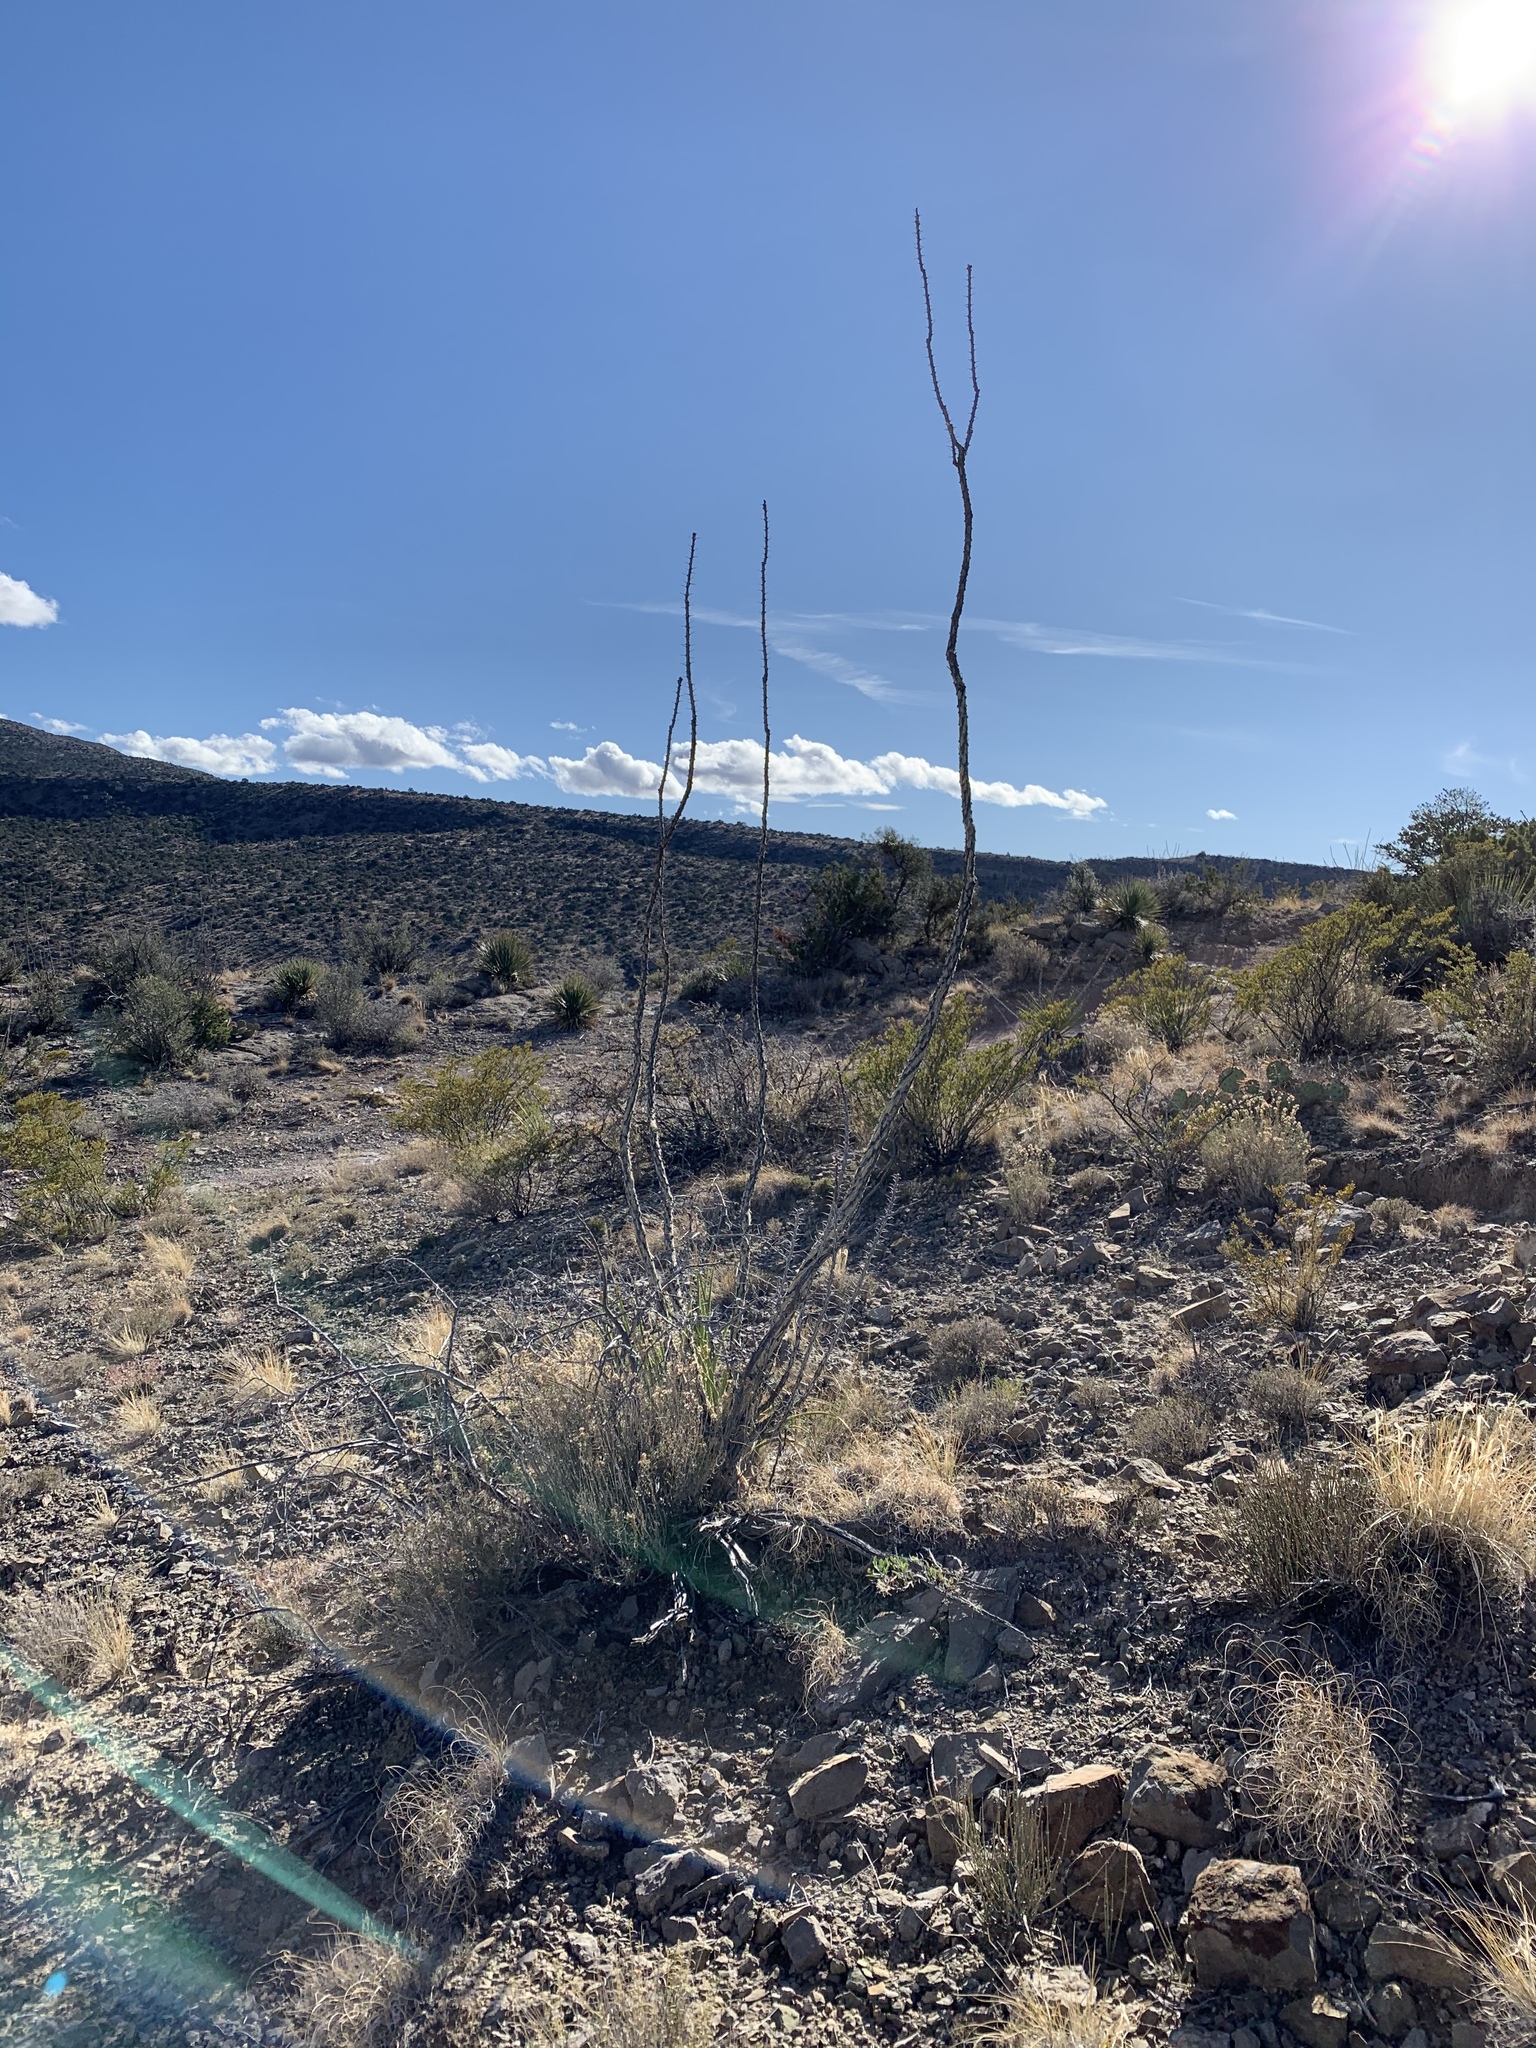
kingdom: Plantae
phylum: Tracheophyta
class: Magnoliopsida
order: Ericales
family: Fouquieriaceae
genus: Fouquieria
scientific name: Fouquieria splendens
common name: Vine-cactus
